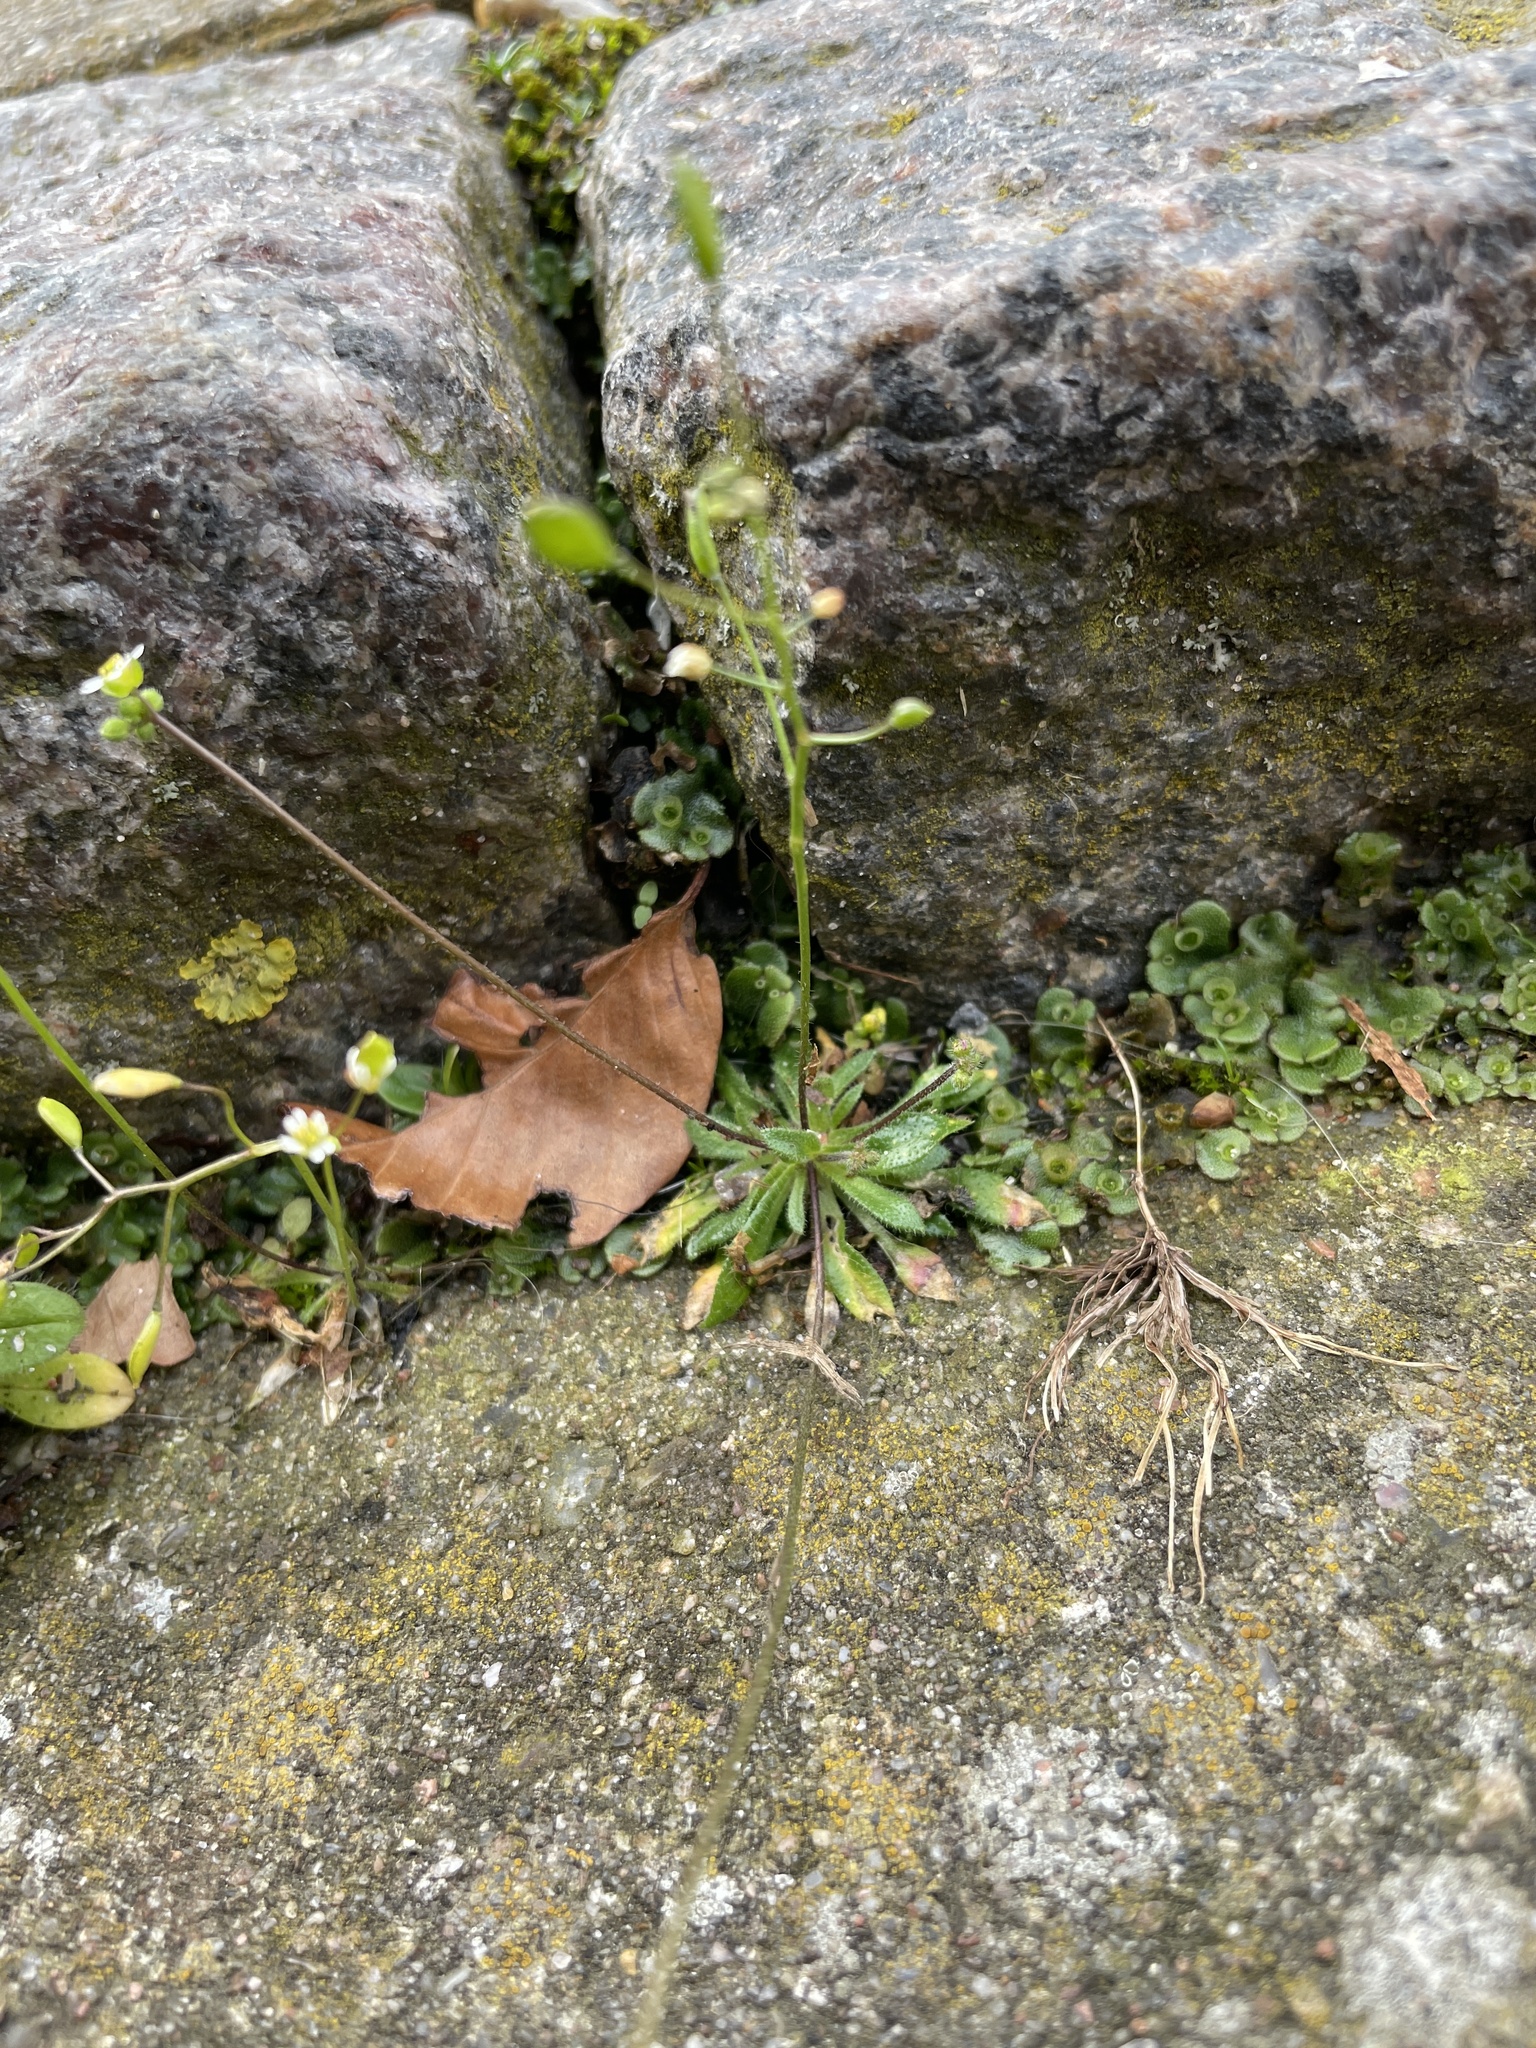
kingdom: Plantae
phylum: Tracheophyta
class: Magnoliopsida
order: Brassicales
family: Brassicaceae
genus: Draba
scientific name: Draba verna
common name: Spring draba
